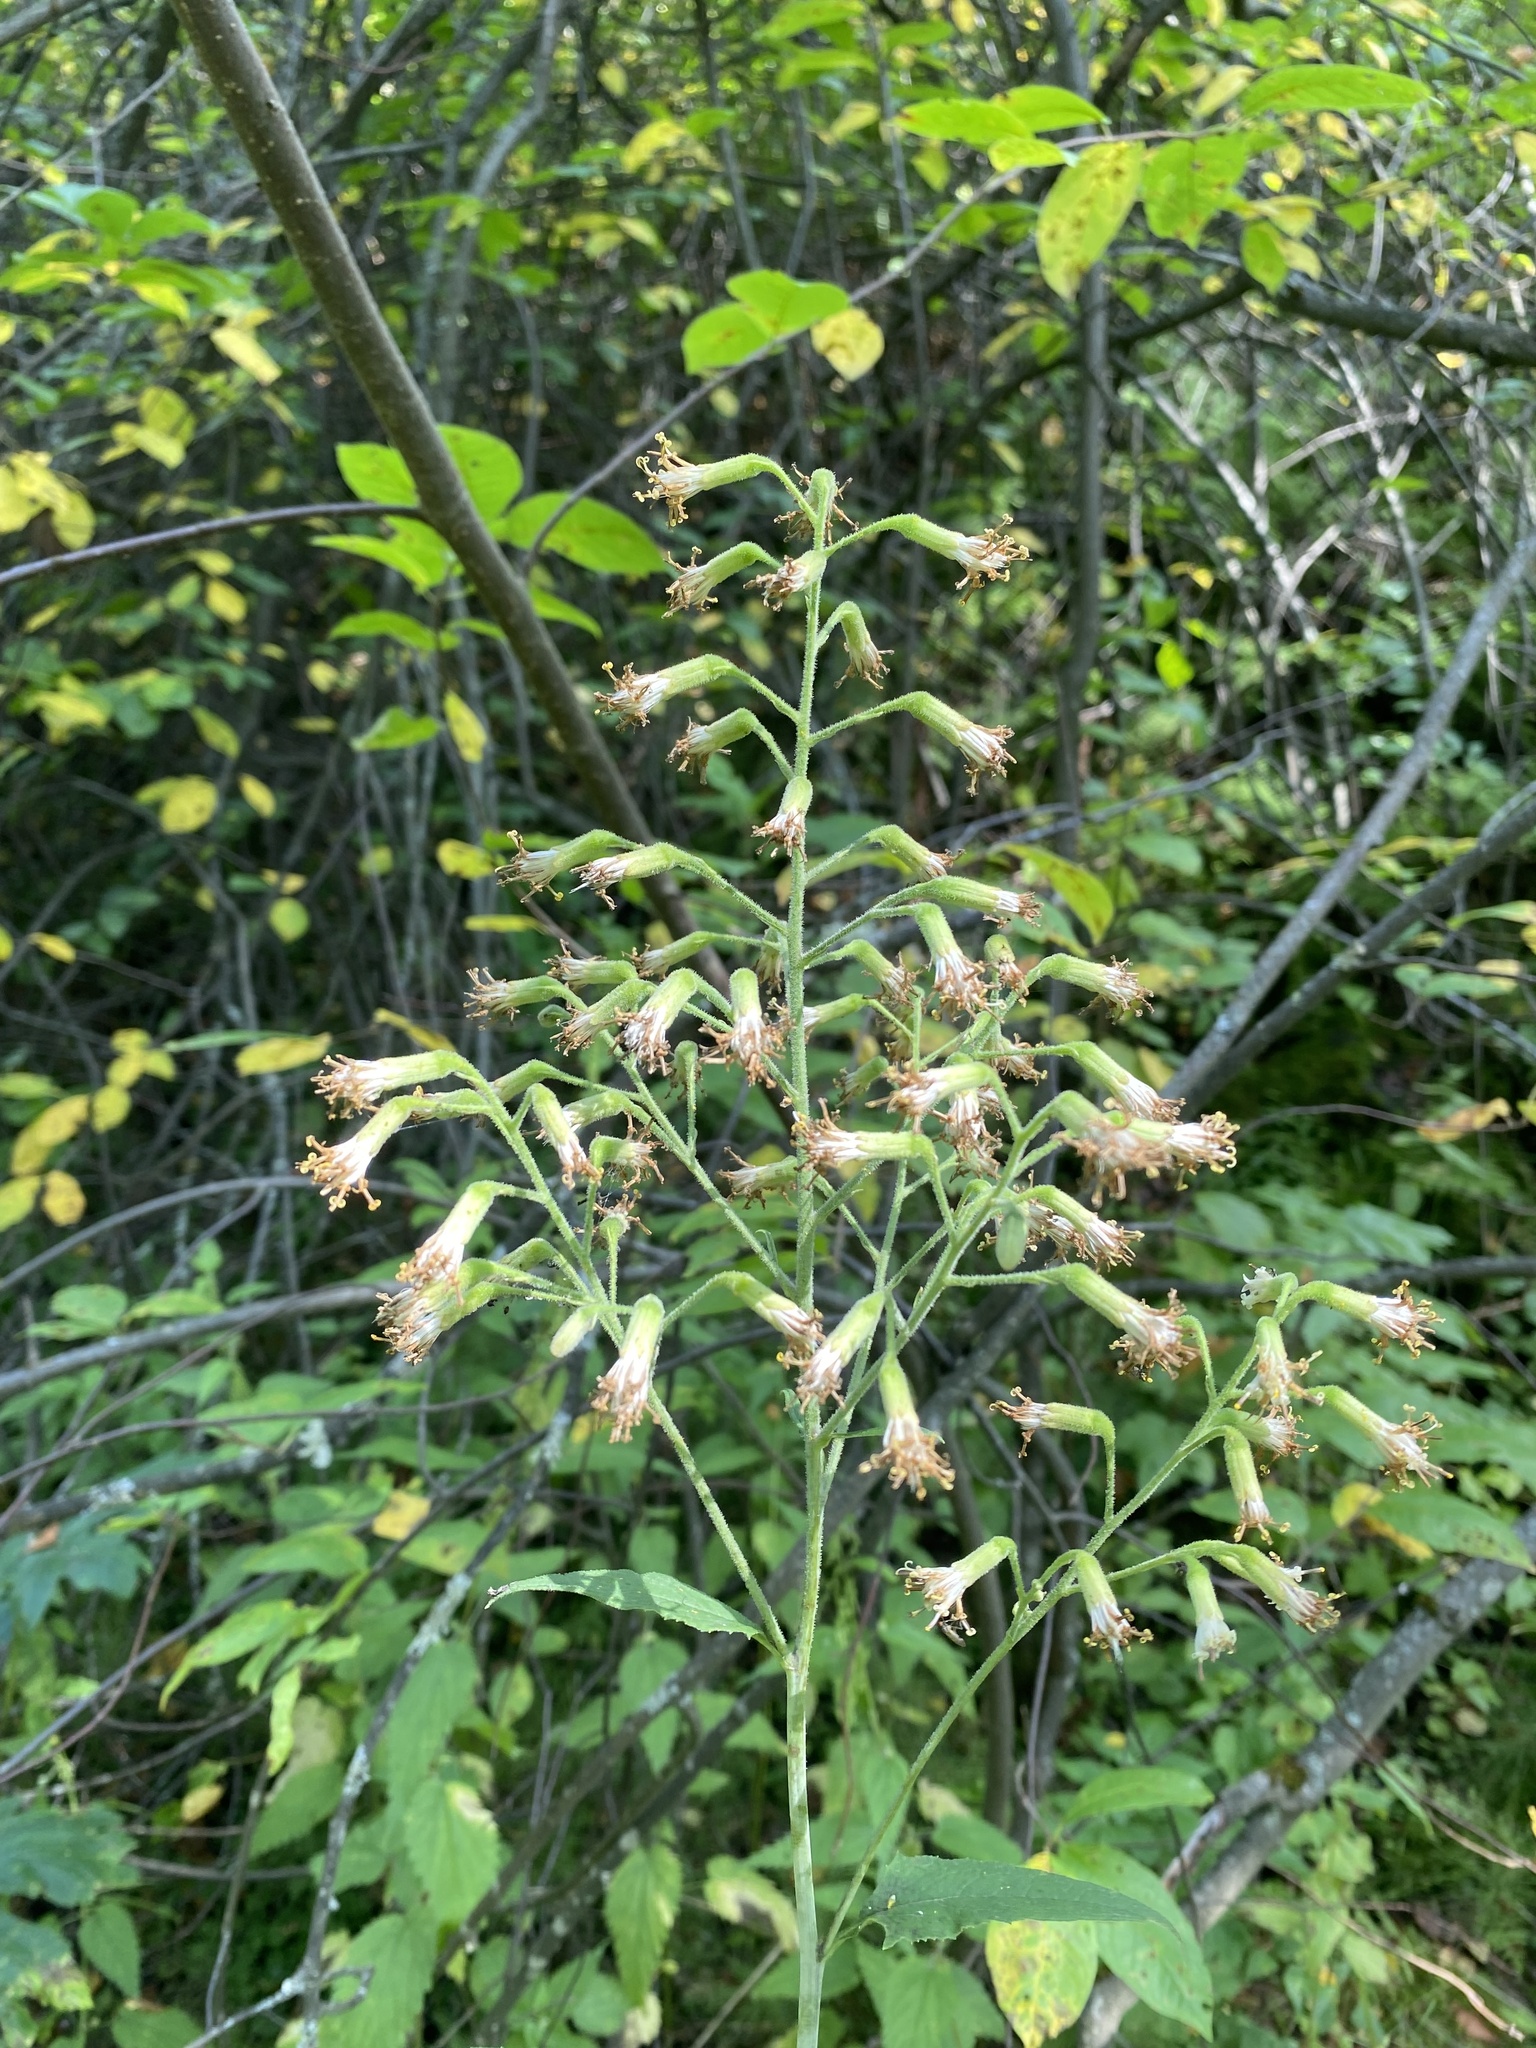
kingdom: Plantae
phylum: Tracheophyta
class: Magnoliopsida
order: Asterales
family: Asteraceae
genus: Parasenecio
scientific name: Parasenecio hastatus
